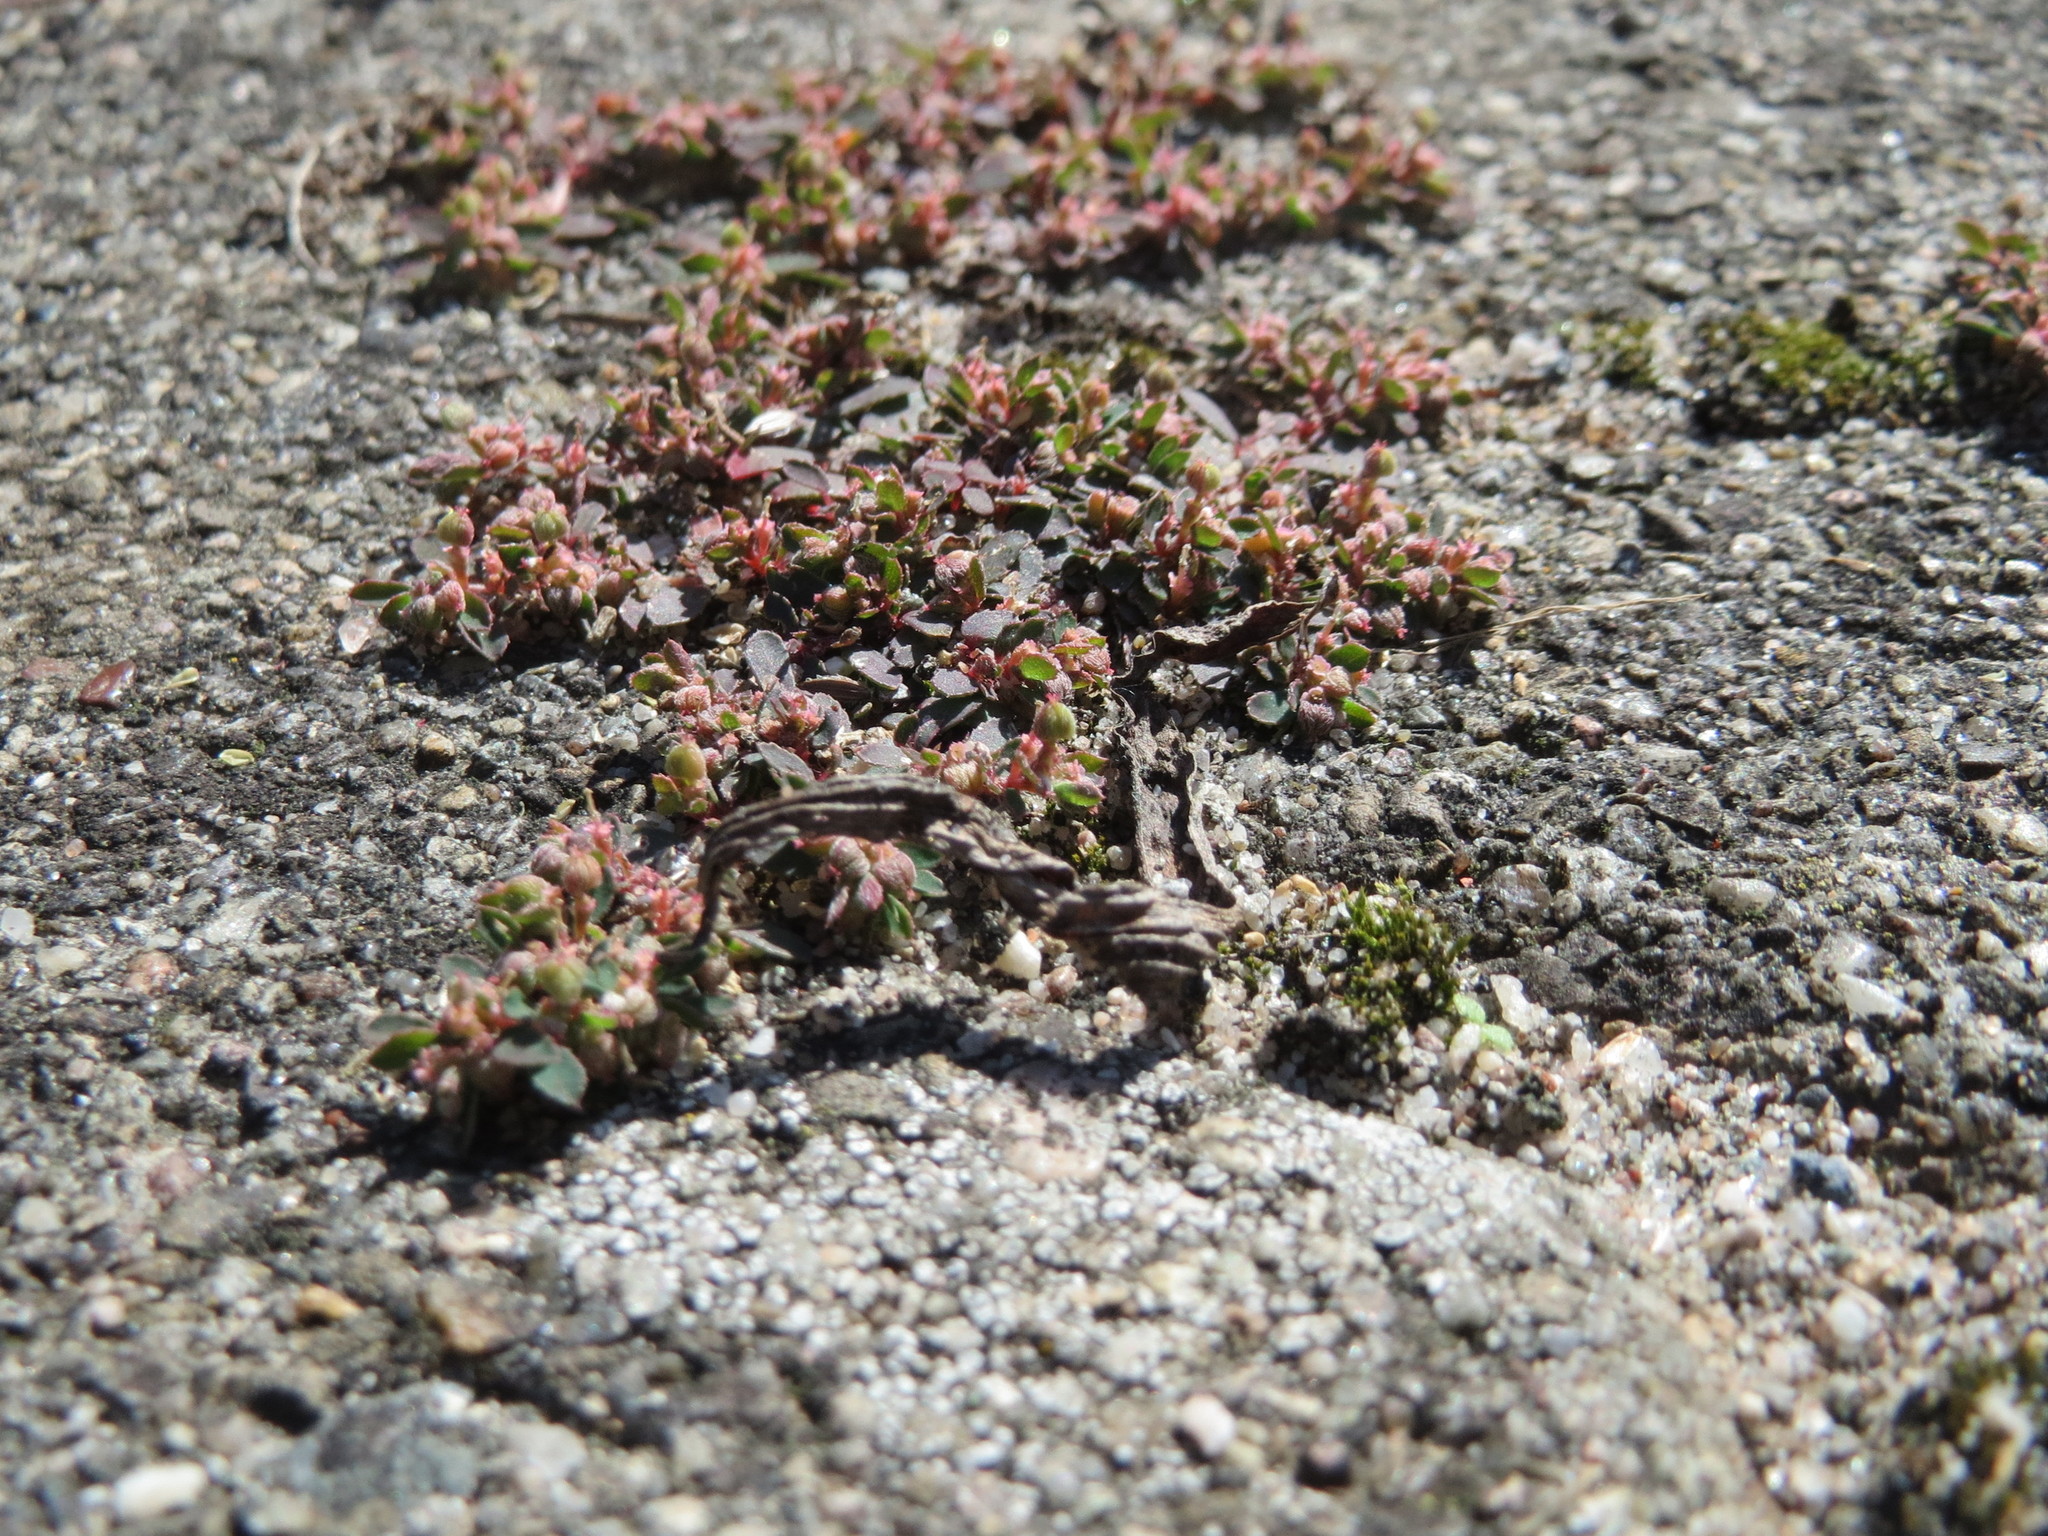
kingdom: Plantae
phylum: Tracheophyta
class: Magnoliopsida
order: Malpighiales
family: Euphorbiaceae
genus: Euphorbia
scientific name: Euphorbia maculata
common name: Spotted spurge
